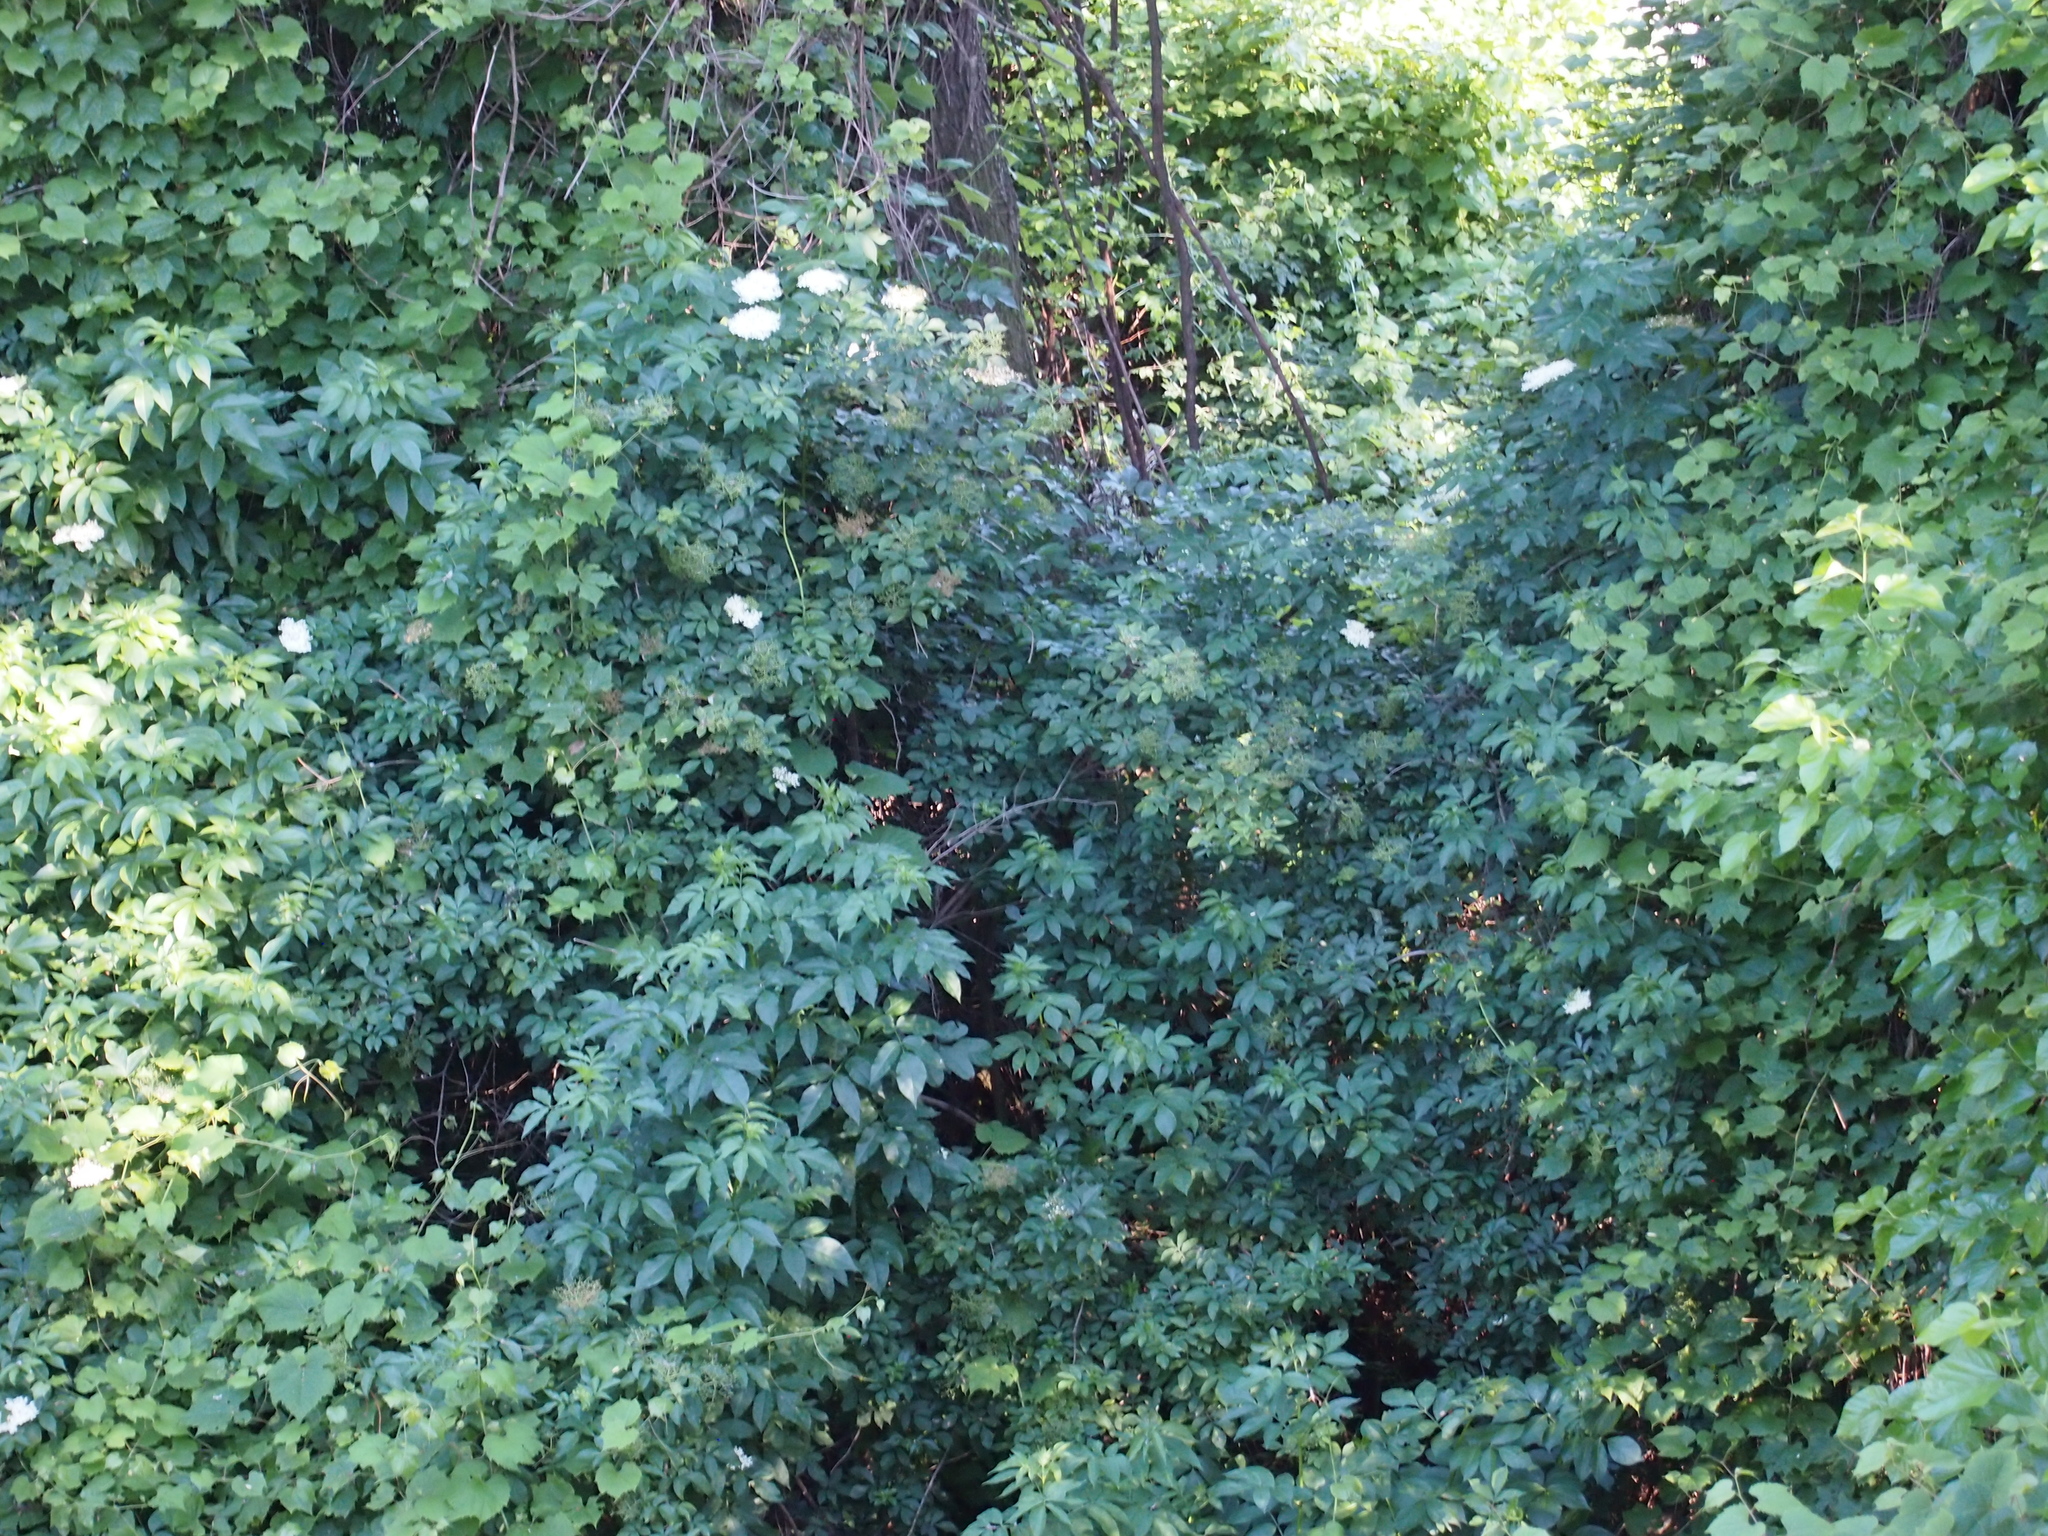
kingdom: Plantae
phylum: Tracheophyta
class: Magnoliopsida
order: Dipsacales
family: Viburnaceae
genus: Sambucus
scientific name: Sambucus nigra
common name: Elder
